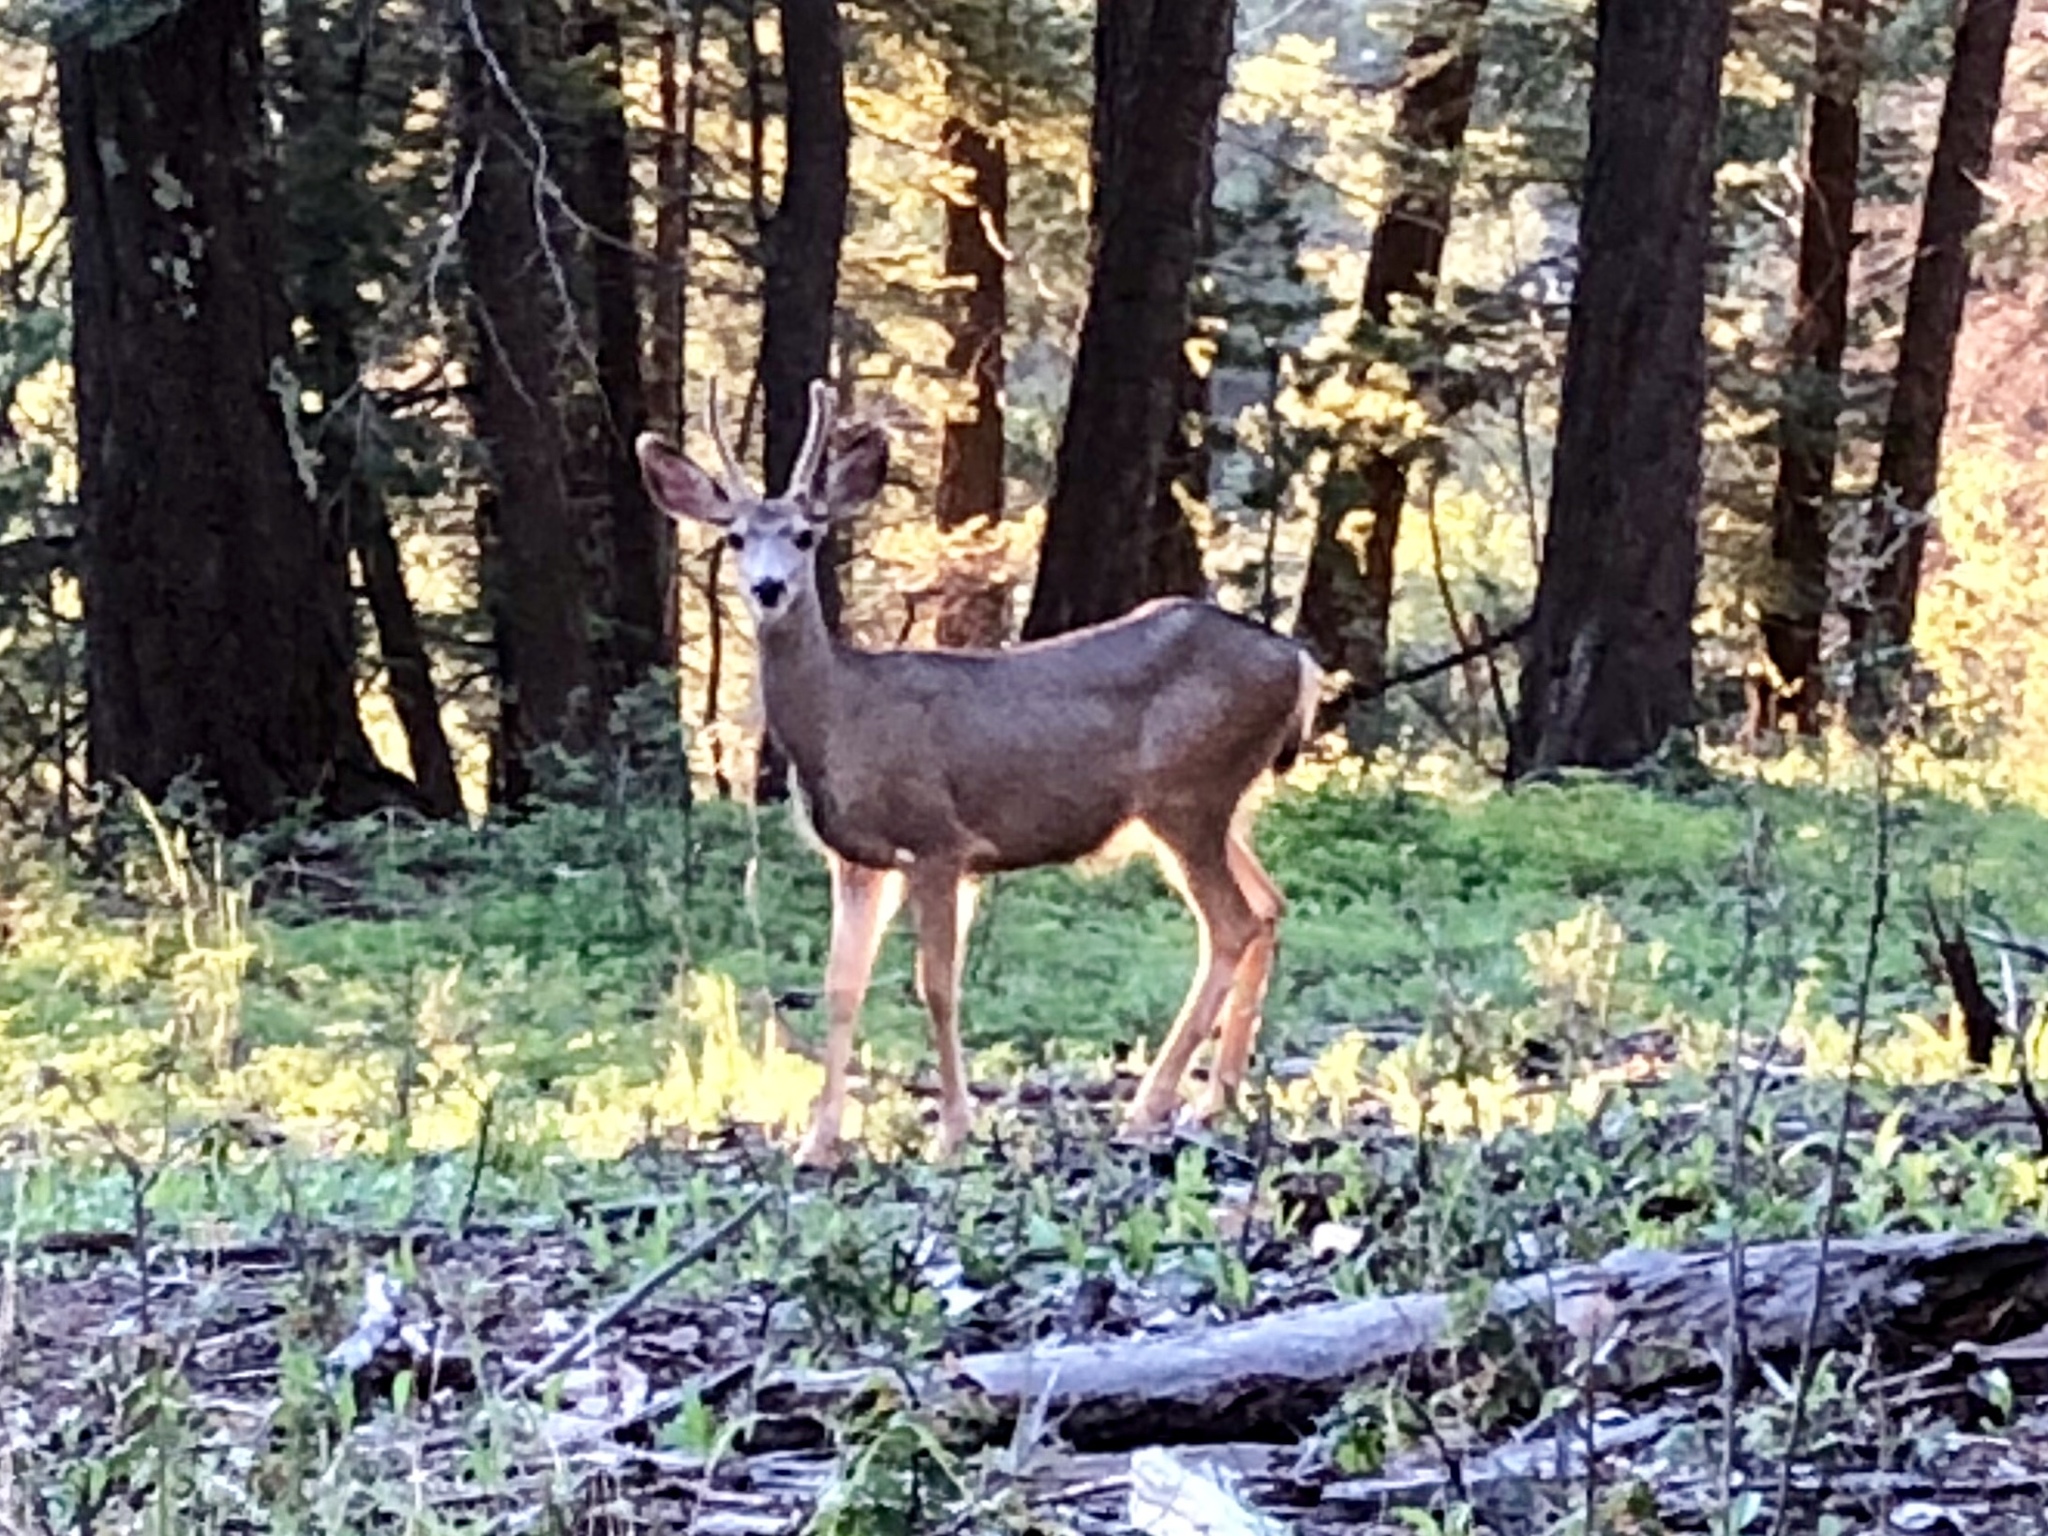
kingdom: Animalia
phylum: Chordata
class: Mammalia
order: Artiodactyla
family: Cervidae
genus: Odocoileus
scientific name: Odocoileus hemionus
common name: Mule deer
